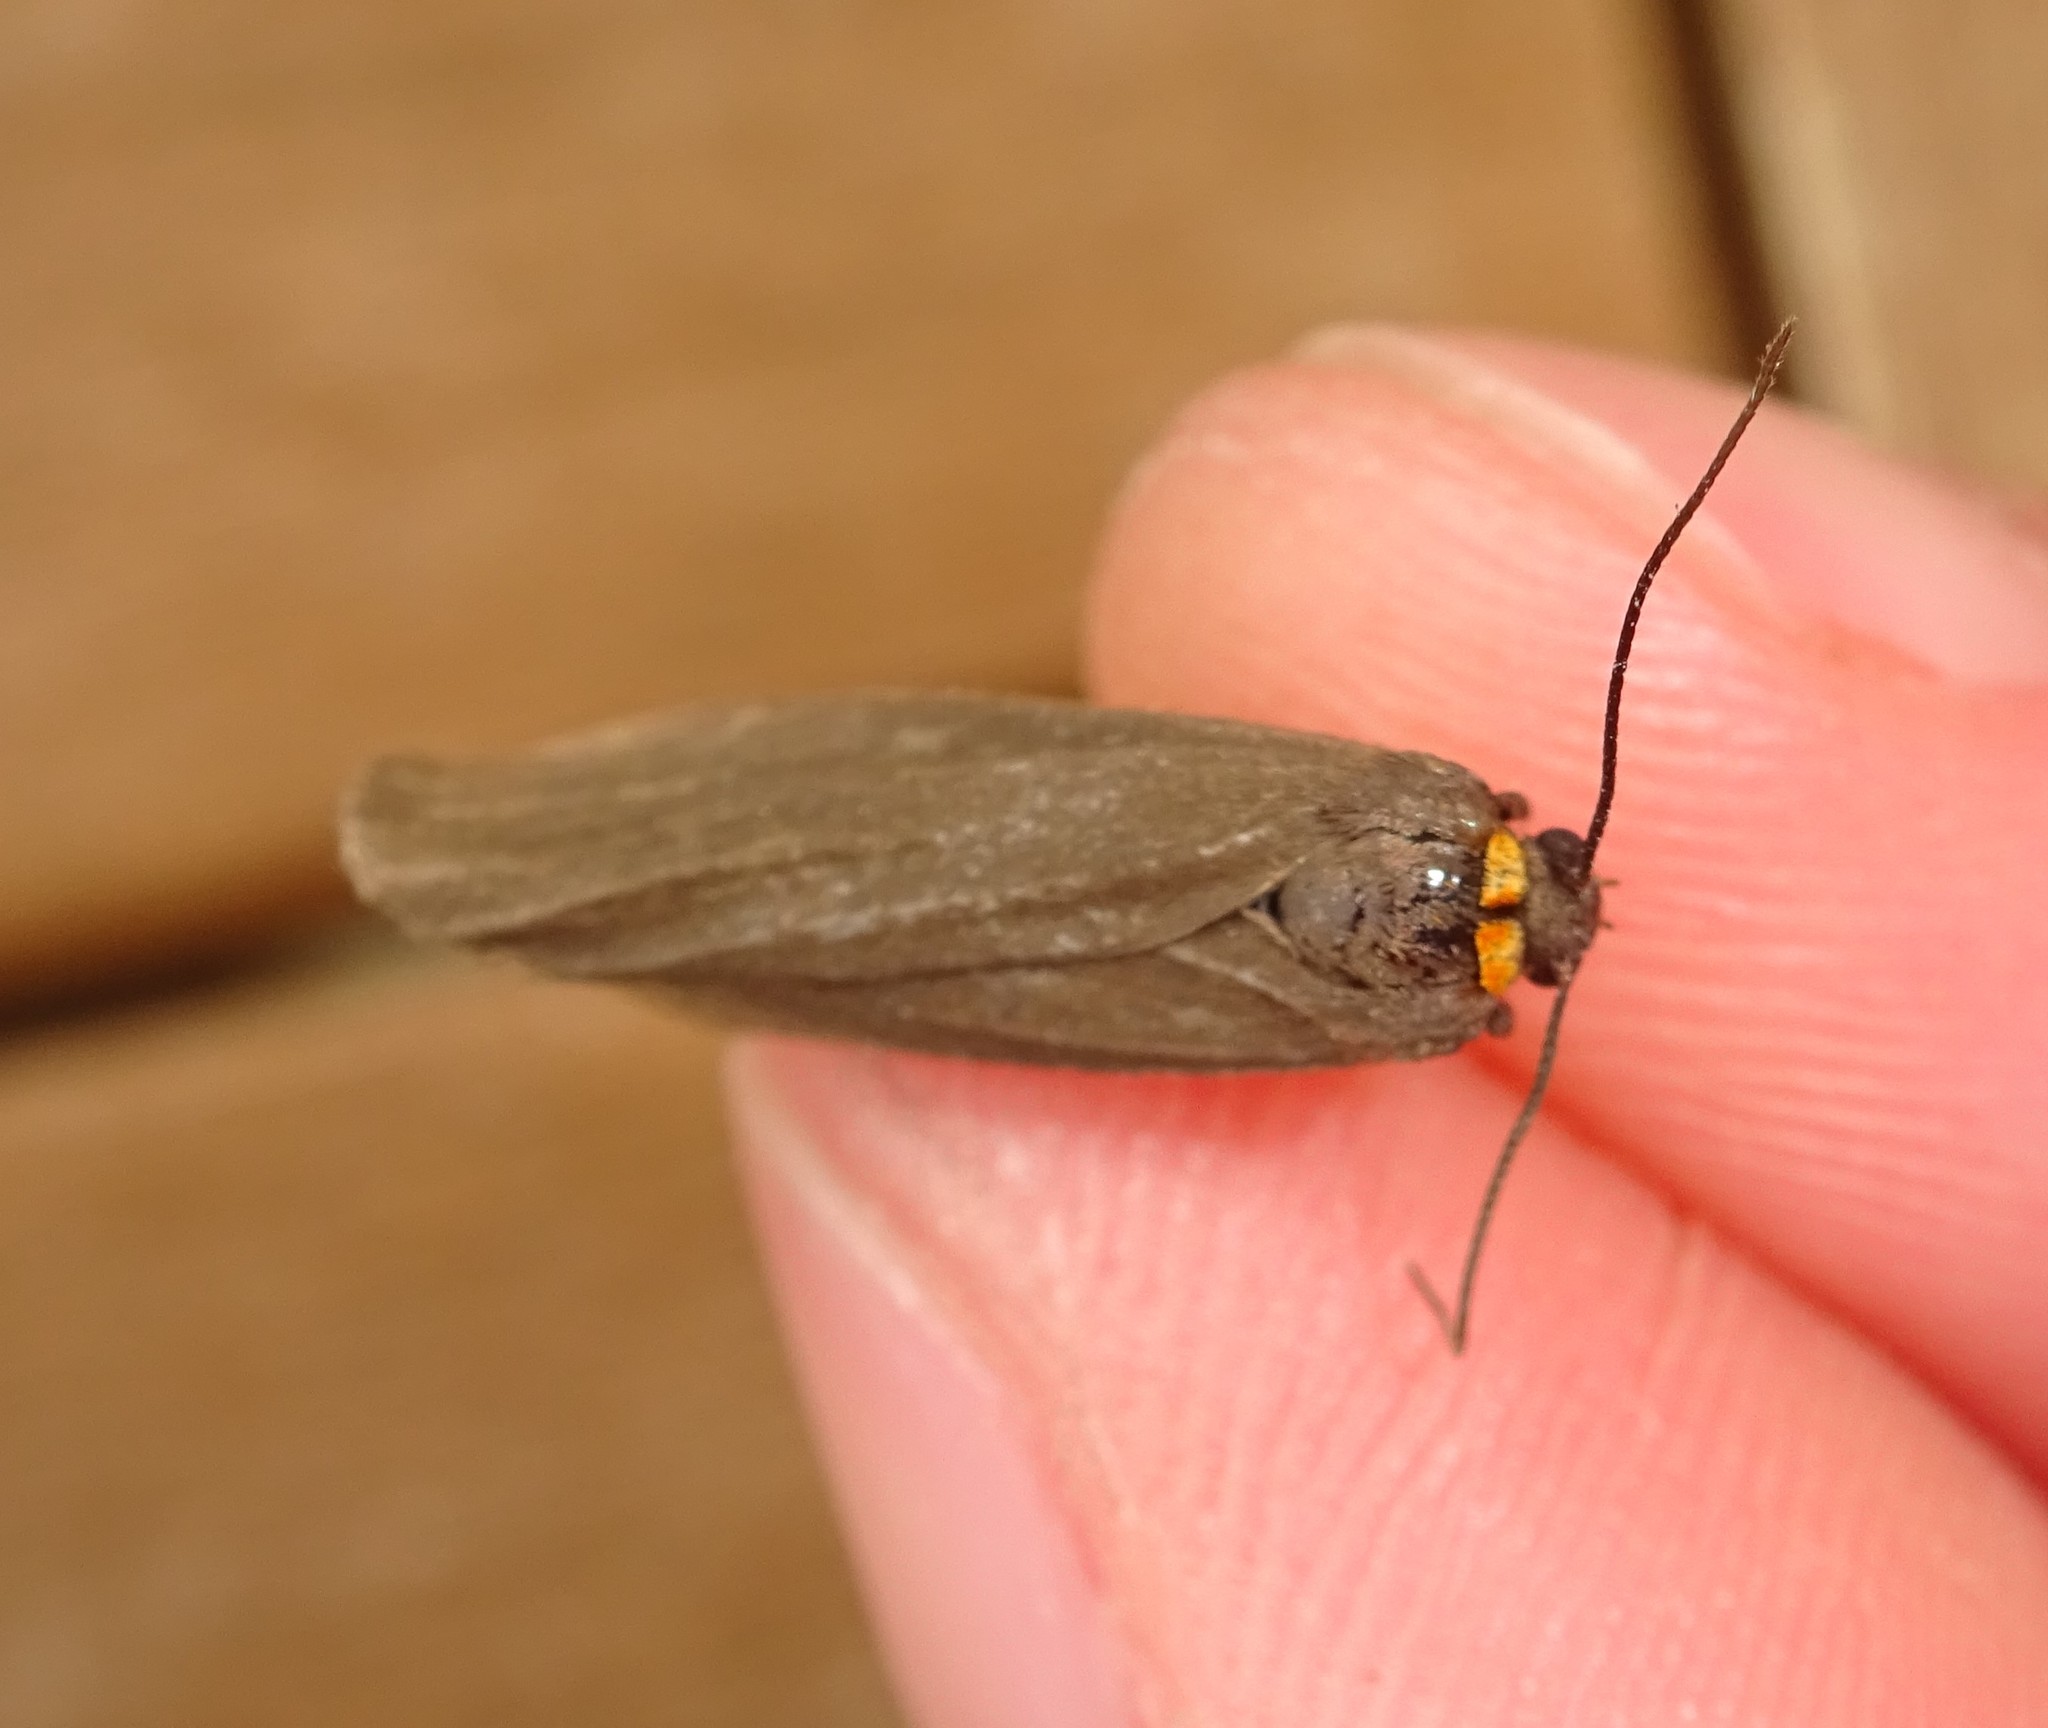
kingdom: Animalia
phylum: Arthropoda
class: Insecta
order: Lepidoptera
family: Erebidae
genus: Atolmis
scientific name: Atolmis rubricollis
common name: Red-necked footman
